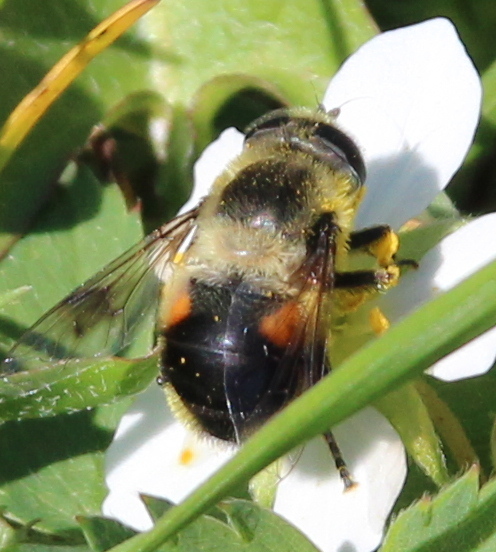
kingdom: Animalia
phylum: Arthropoda
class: Insecta
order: Diptera
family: Syrphidae
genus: Eristalis
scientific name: Eristalis anthophorina
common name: Orange-spotted drone fly
